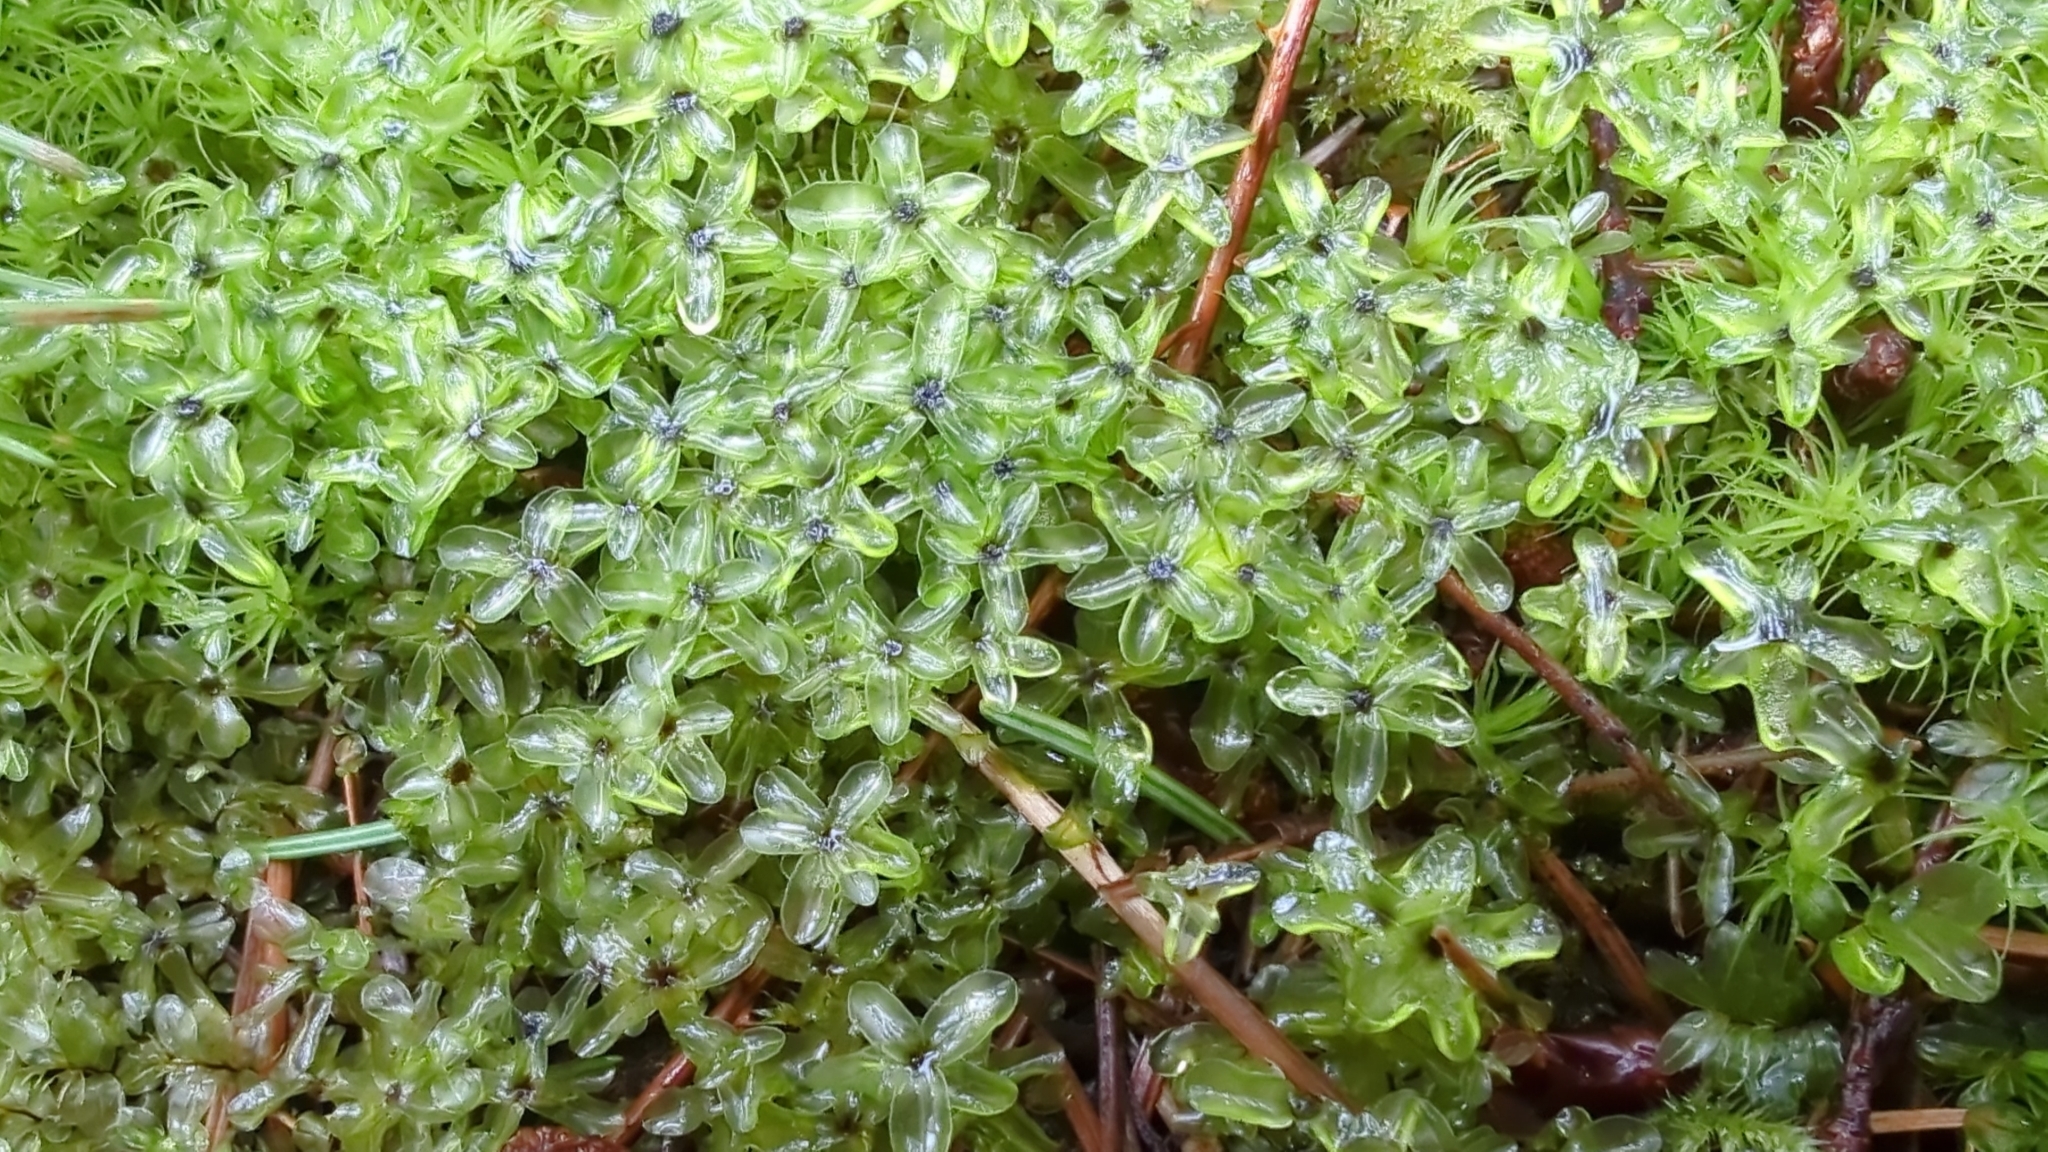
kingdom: Plantae
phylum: Bryophyta
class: Bryopsida
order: Bryales
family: Mniaceae
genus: Rhizomnium
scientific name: Rhizomnium glabrescens
